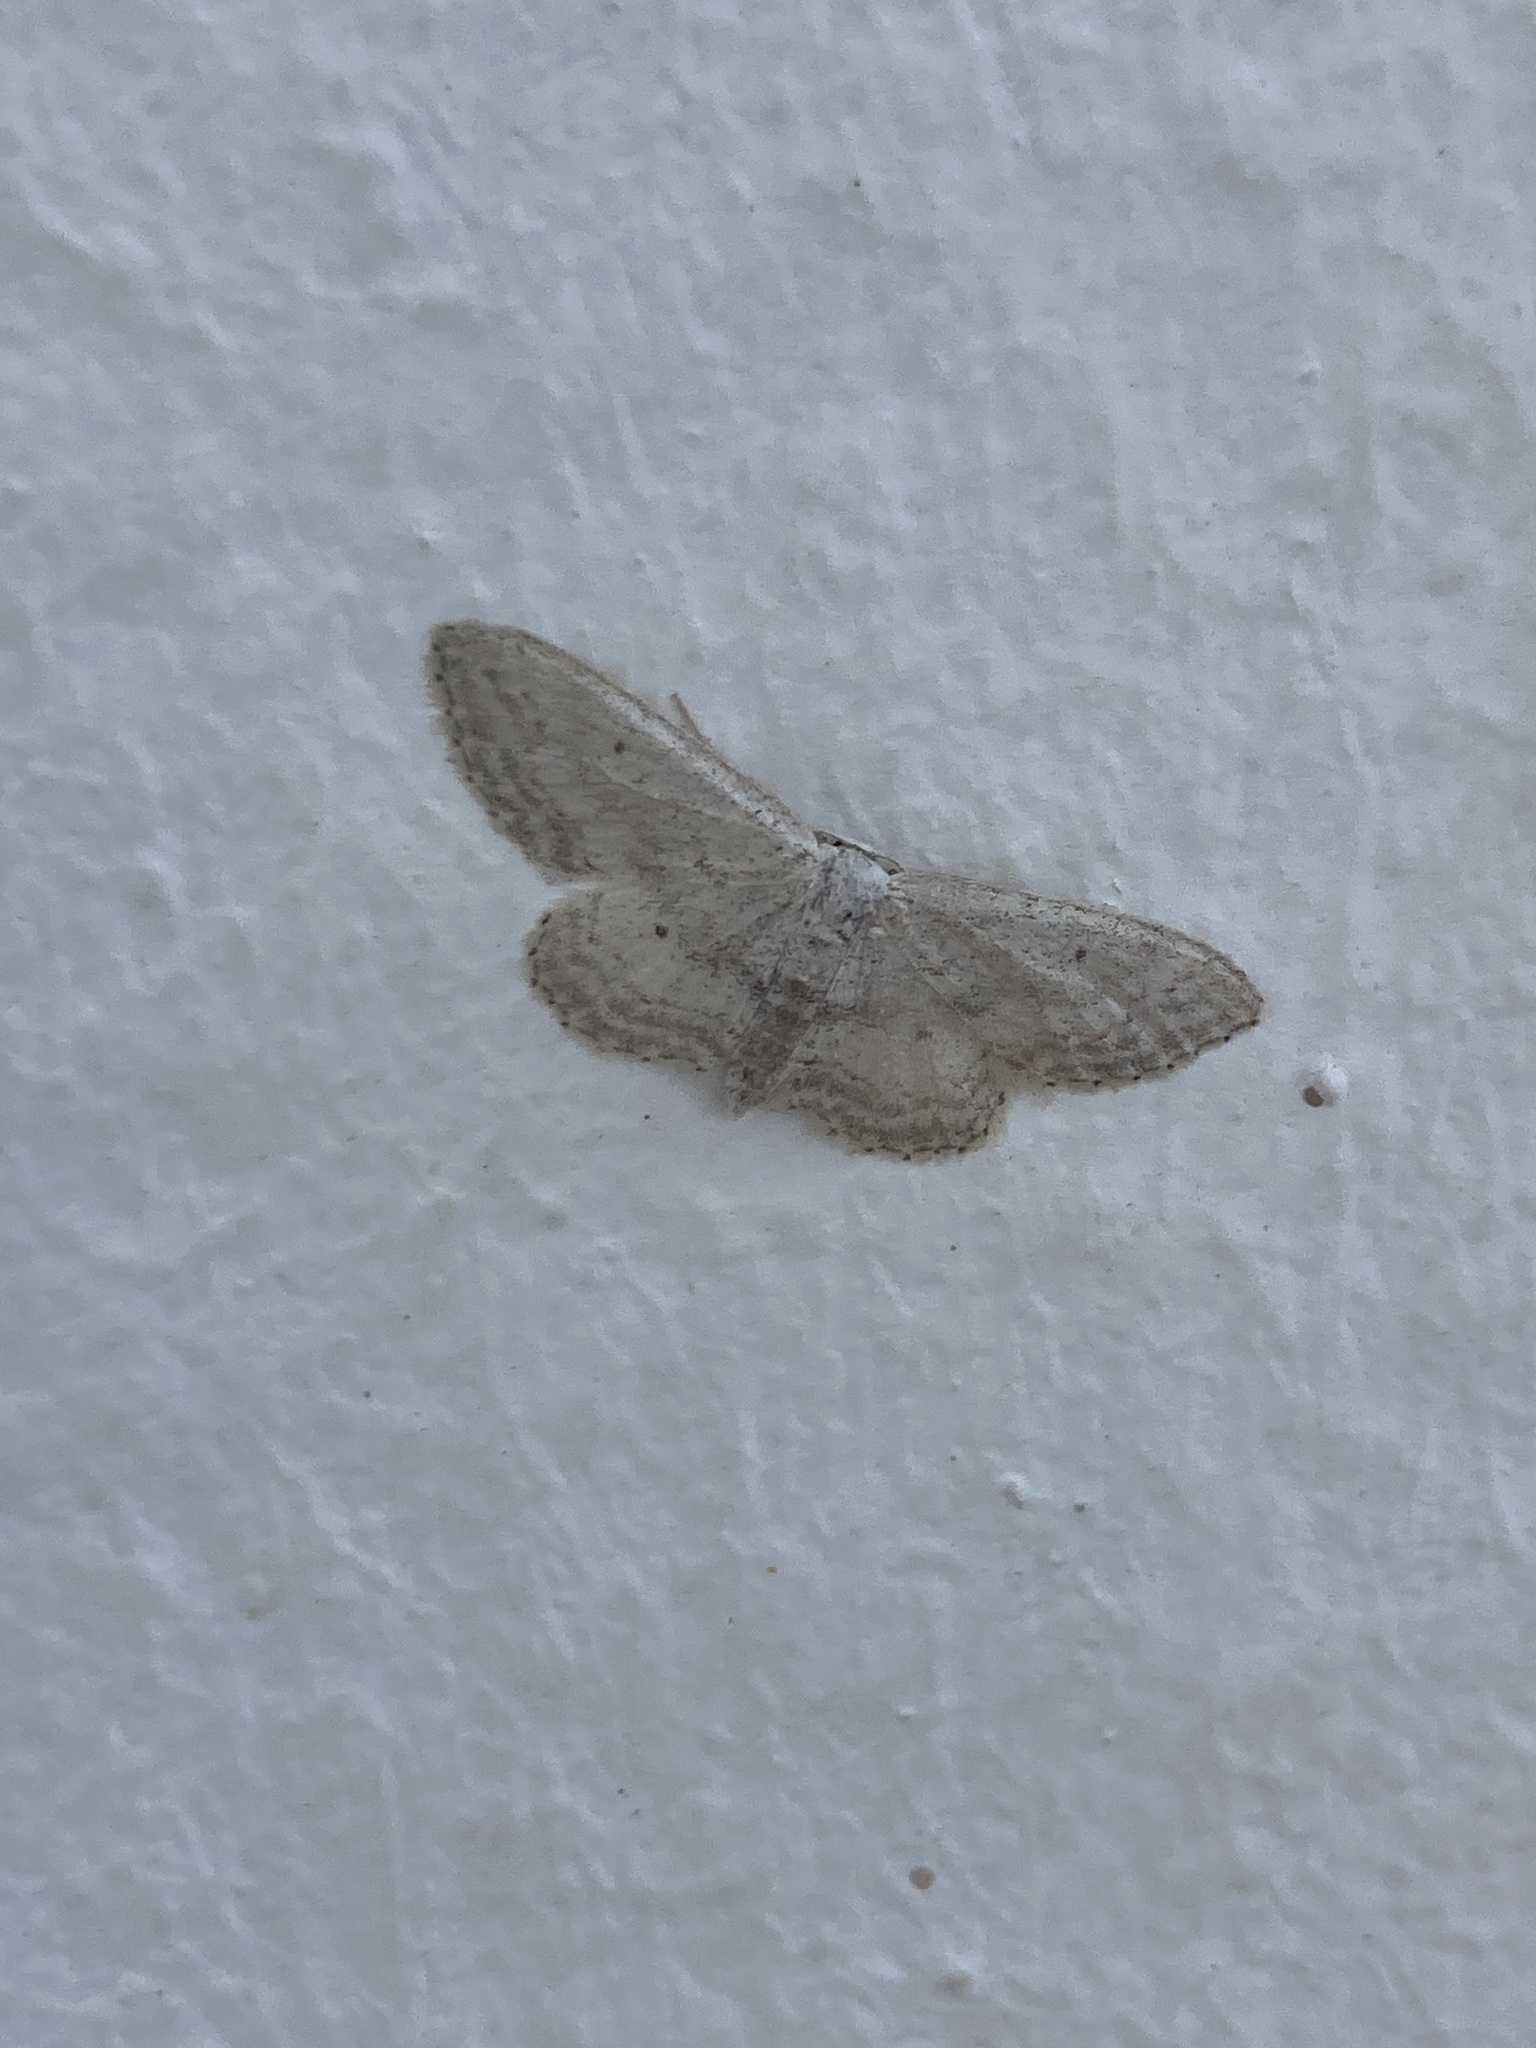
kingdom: Animalia
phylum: Arthropoda
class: Insecta
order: Lepidoptera
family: Geometridae
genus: Idaea
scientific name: Idaea seriata
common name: Small dusty wave
